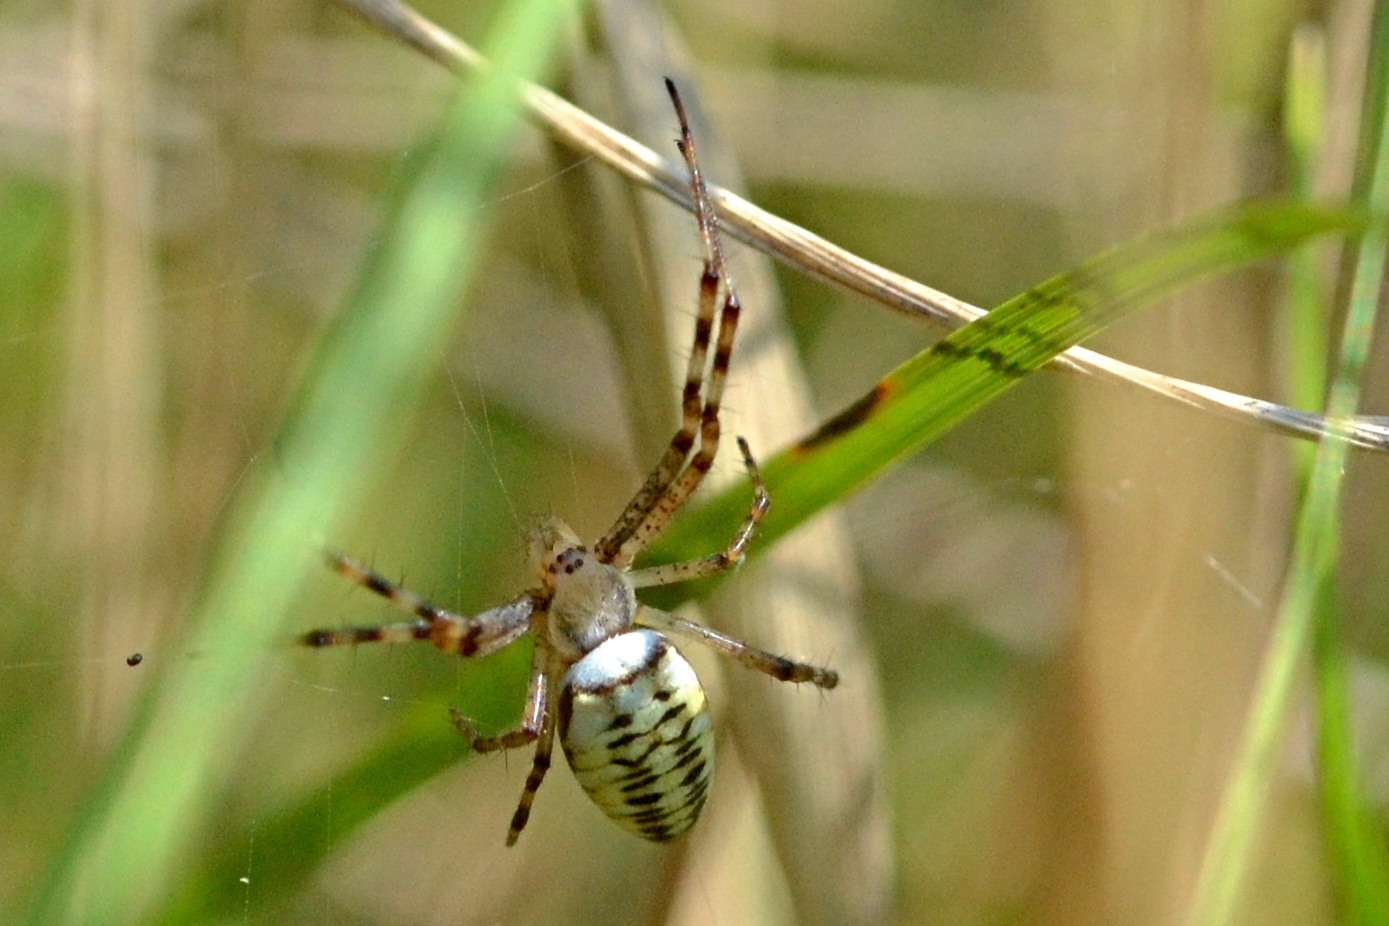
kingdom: Animalia
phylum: Arthropoda
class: Arachnida
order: Araneae
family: Araneidae
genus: Argiope
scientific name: Argiope bruennichi
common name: Wasp spider
